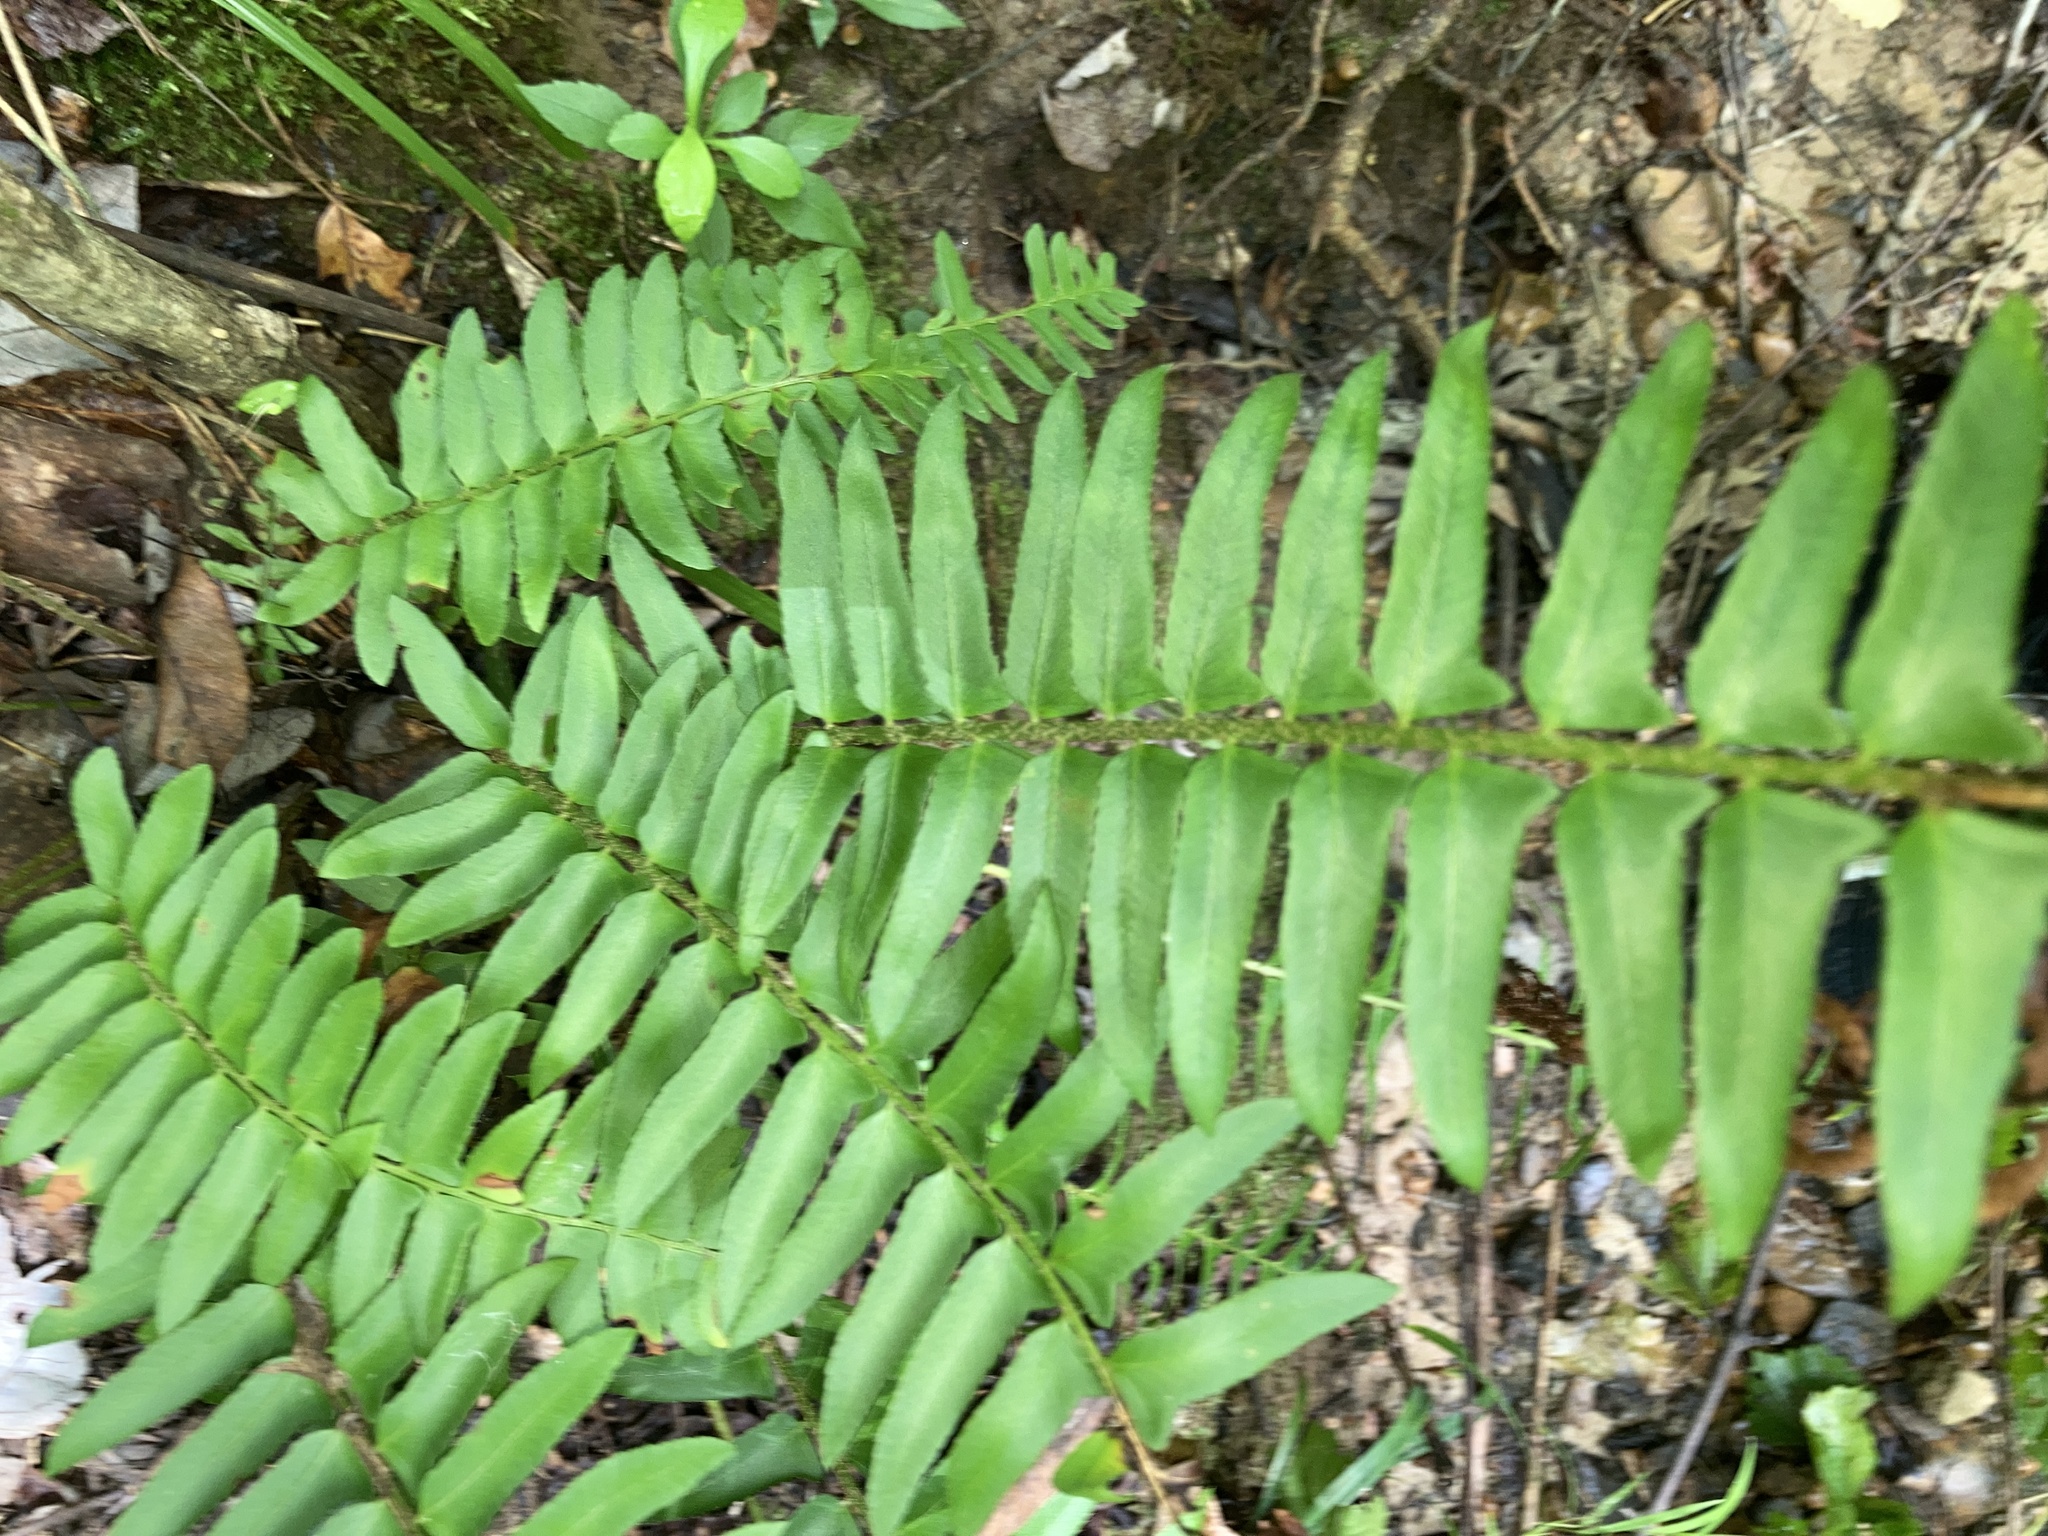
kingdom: Plantae
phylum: Tracheophyta
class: Polypodiopsida
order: Polypodiales
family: Dryopteridaceae
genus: Polystichum
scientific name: Polystichum acrostichoides
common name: Christmas fern
